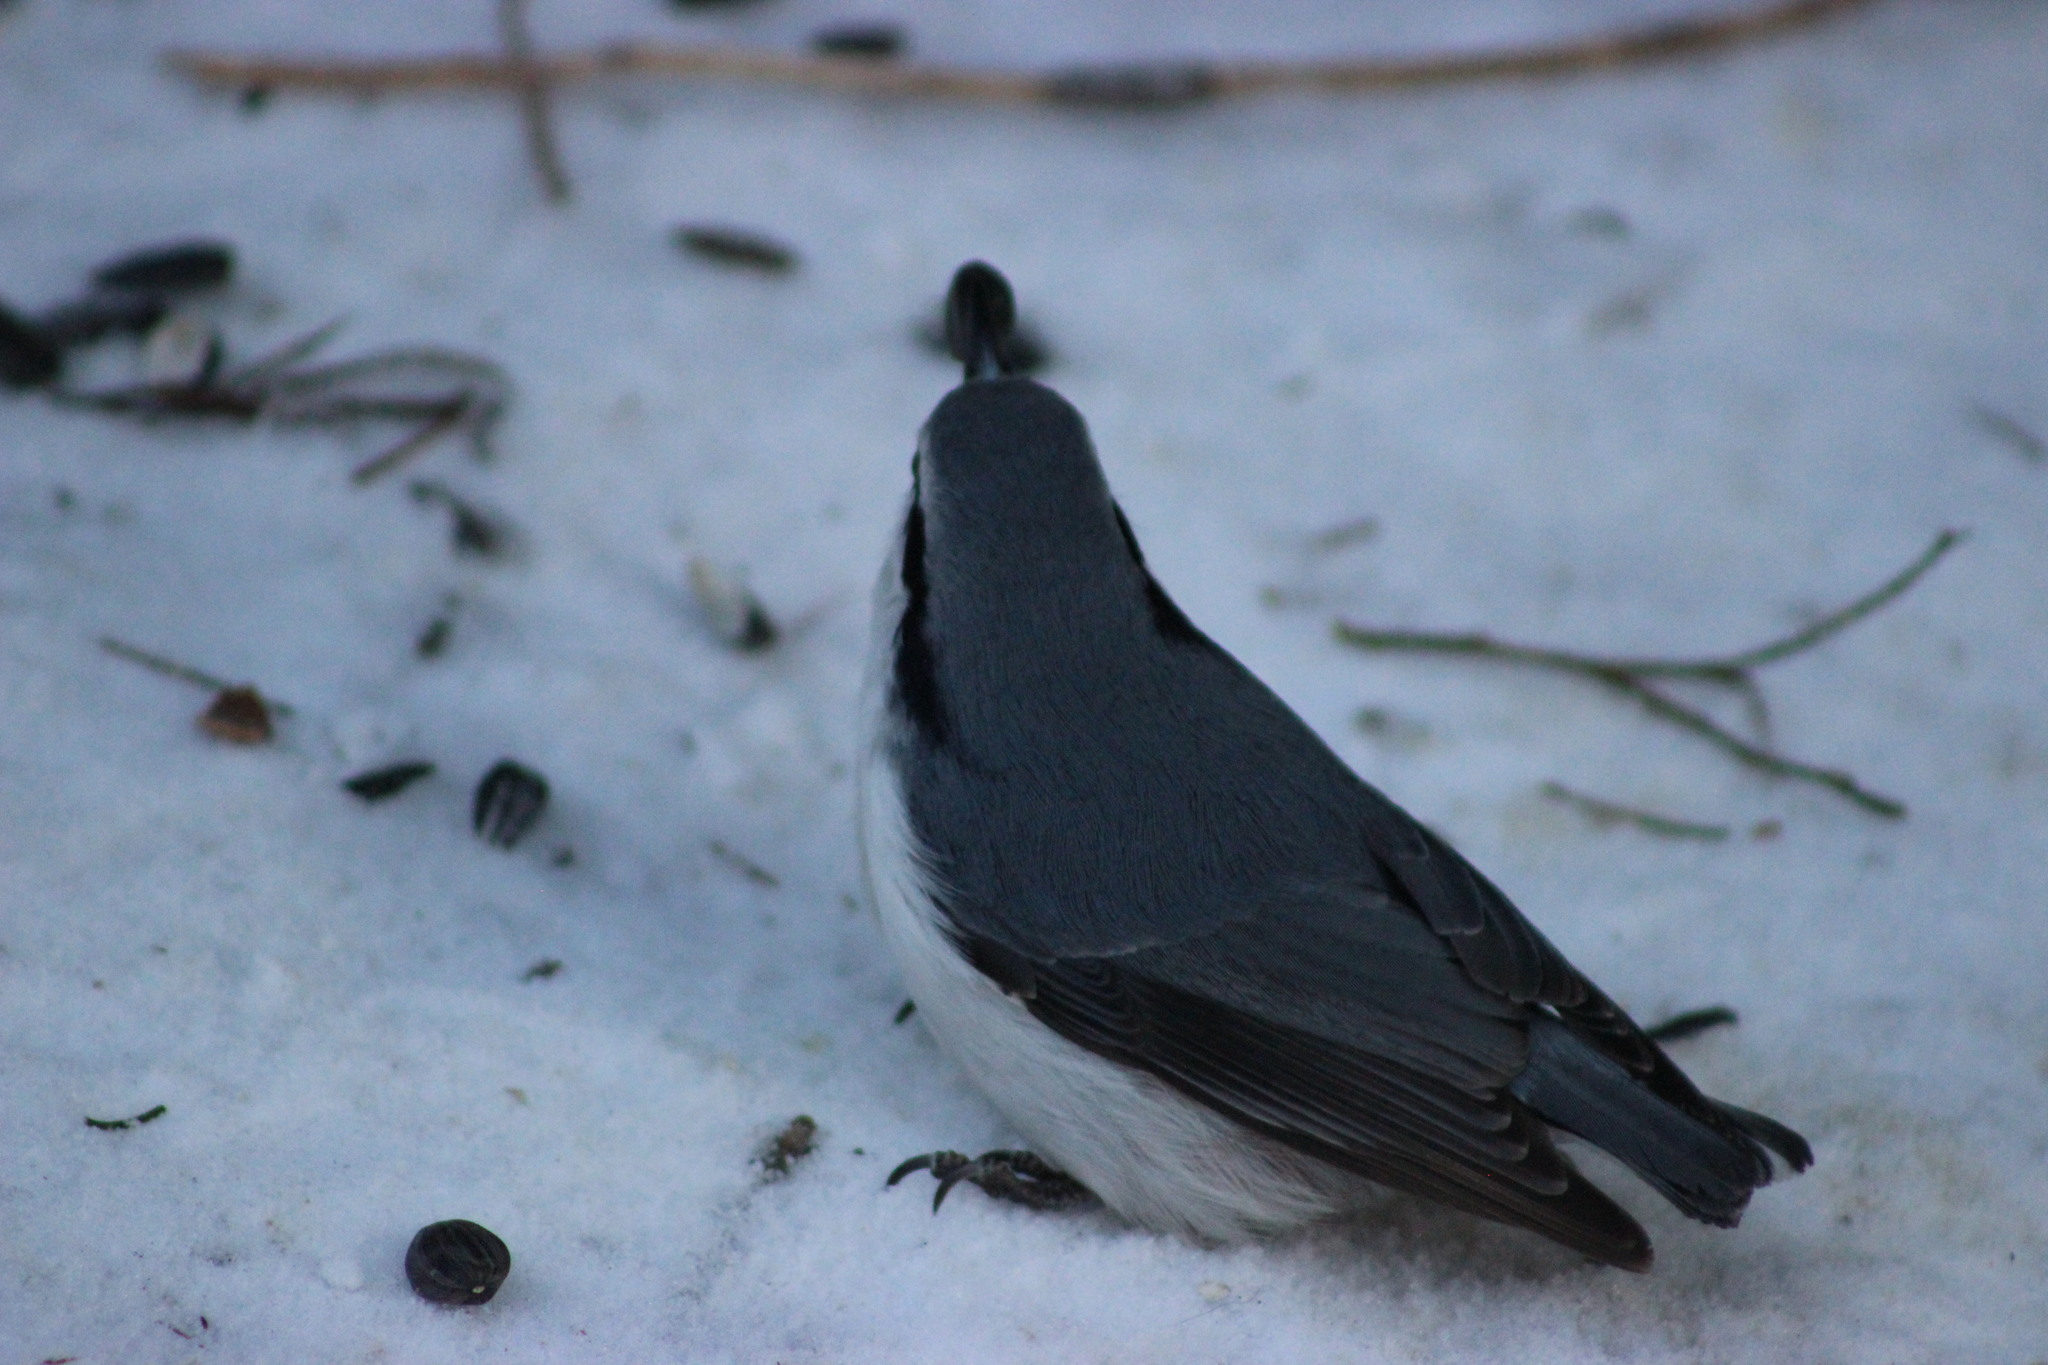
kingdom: Animalia
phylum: Chordata
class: Aves
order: Passeriformes
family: Sittidae
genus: Sitta
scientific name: Sitta europaea
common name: Eurasian nuthatch
